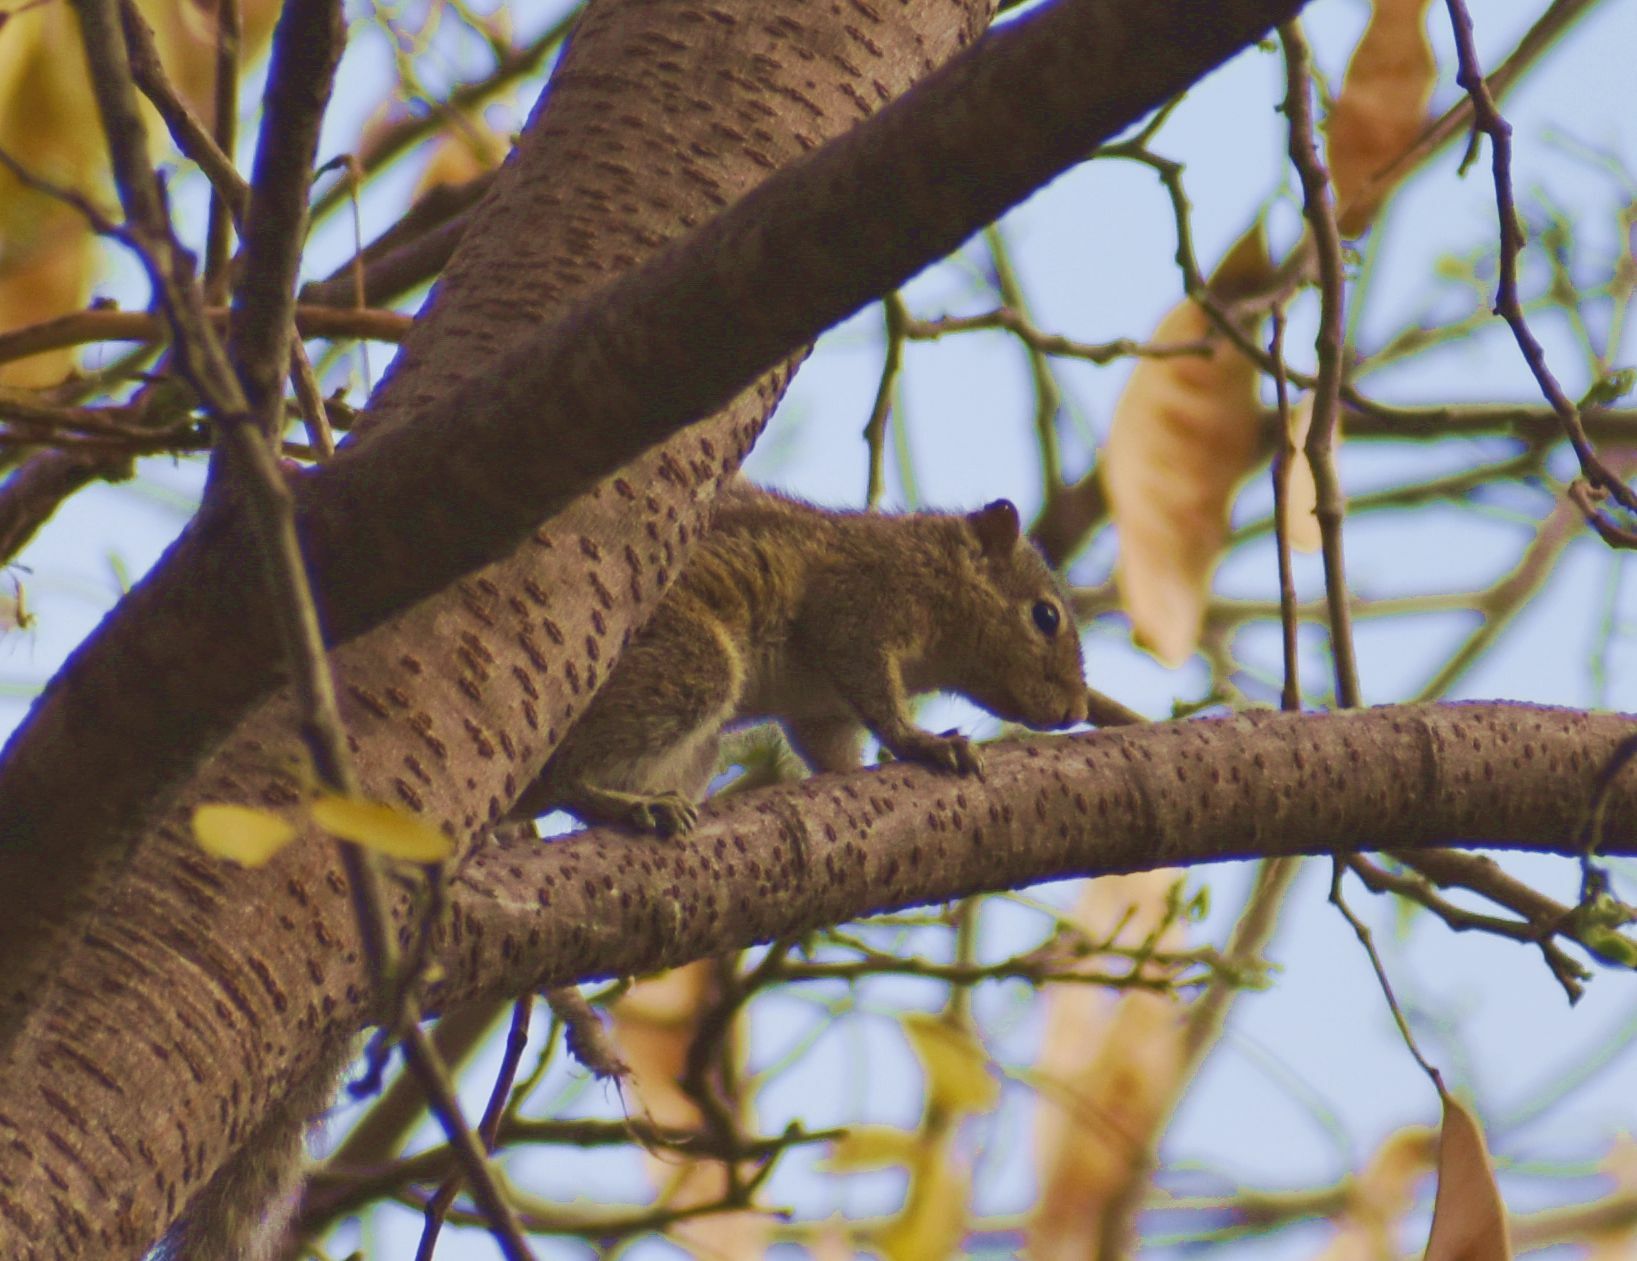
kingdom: Animalia
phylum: Chordata
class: Mammalia
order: Rodentia
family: Sciuridae
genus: Funambulus
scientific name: Funambulus palmarum
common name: Indian palm squirrel
